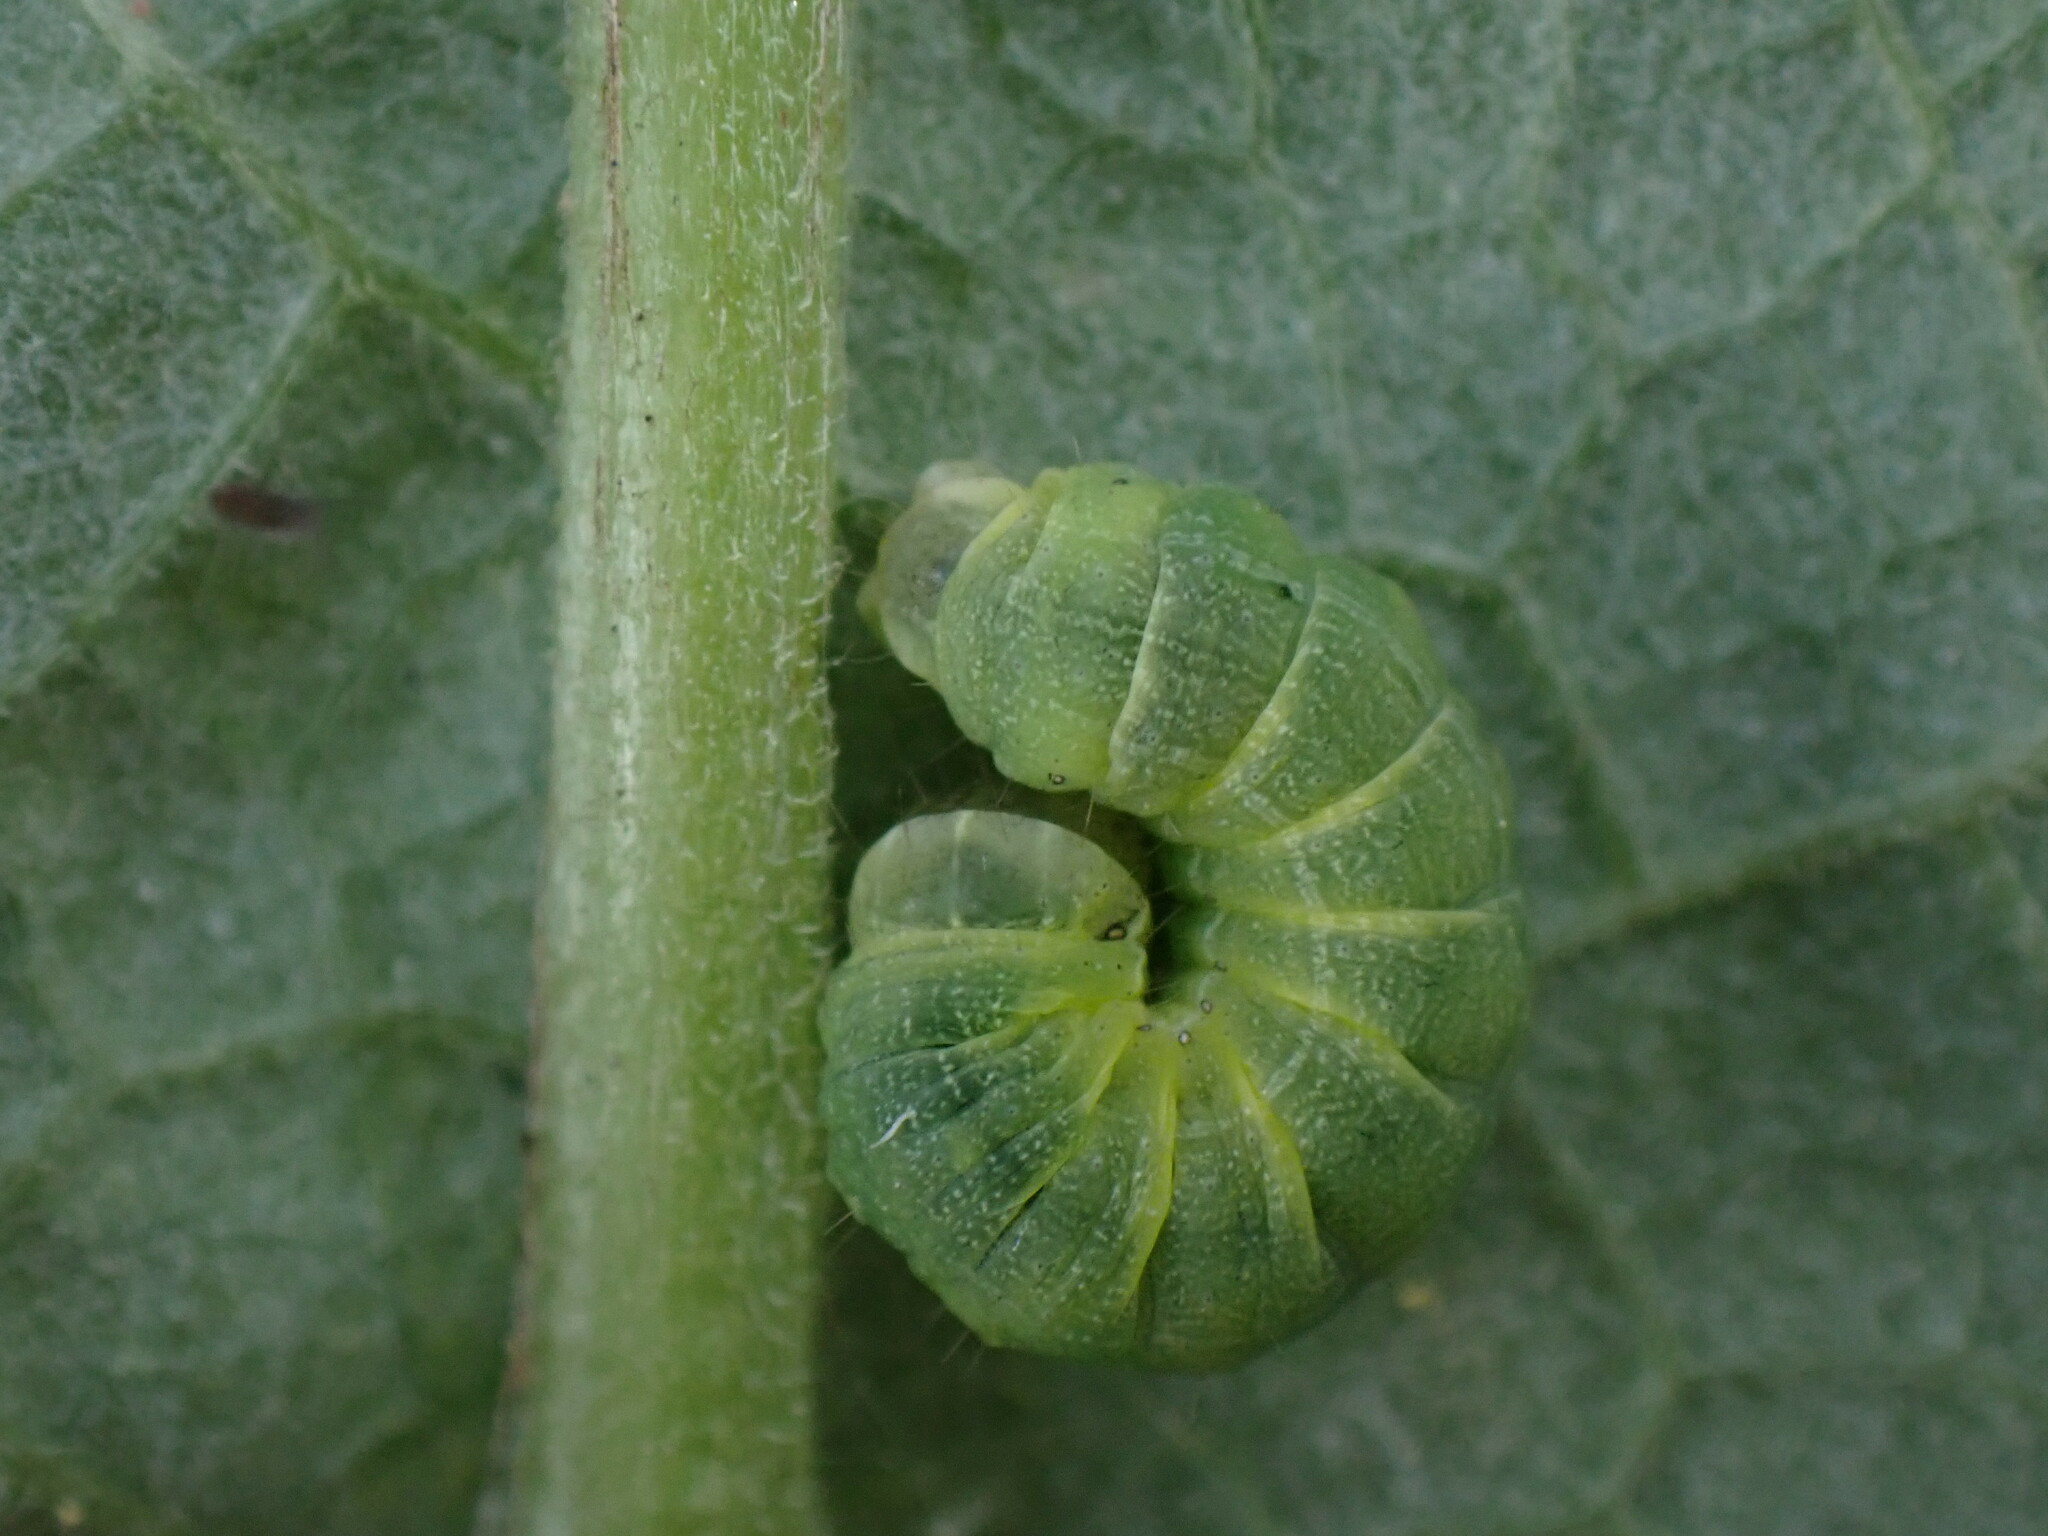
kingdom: Animalia
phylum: Arthropoda
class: Insecta
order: Lepidoptera
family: Noctuidae
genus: Noctua
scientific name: Noctua pronuba
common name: Large yellow underwing
